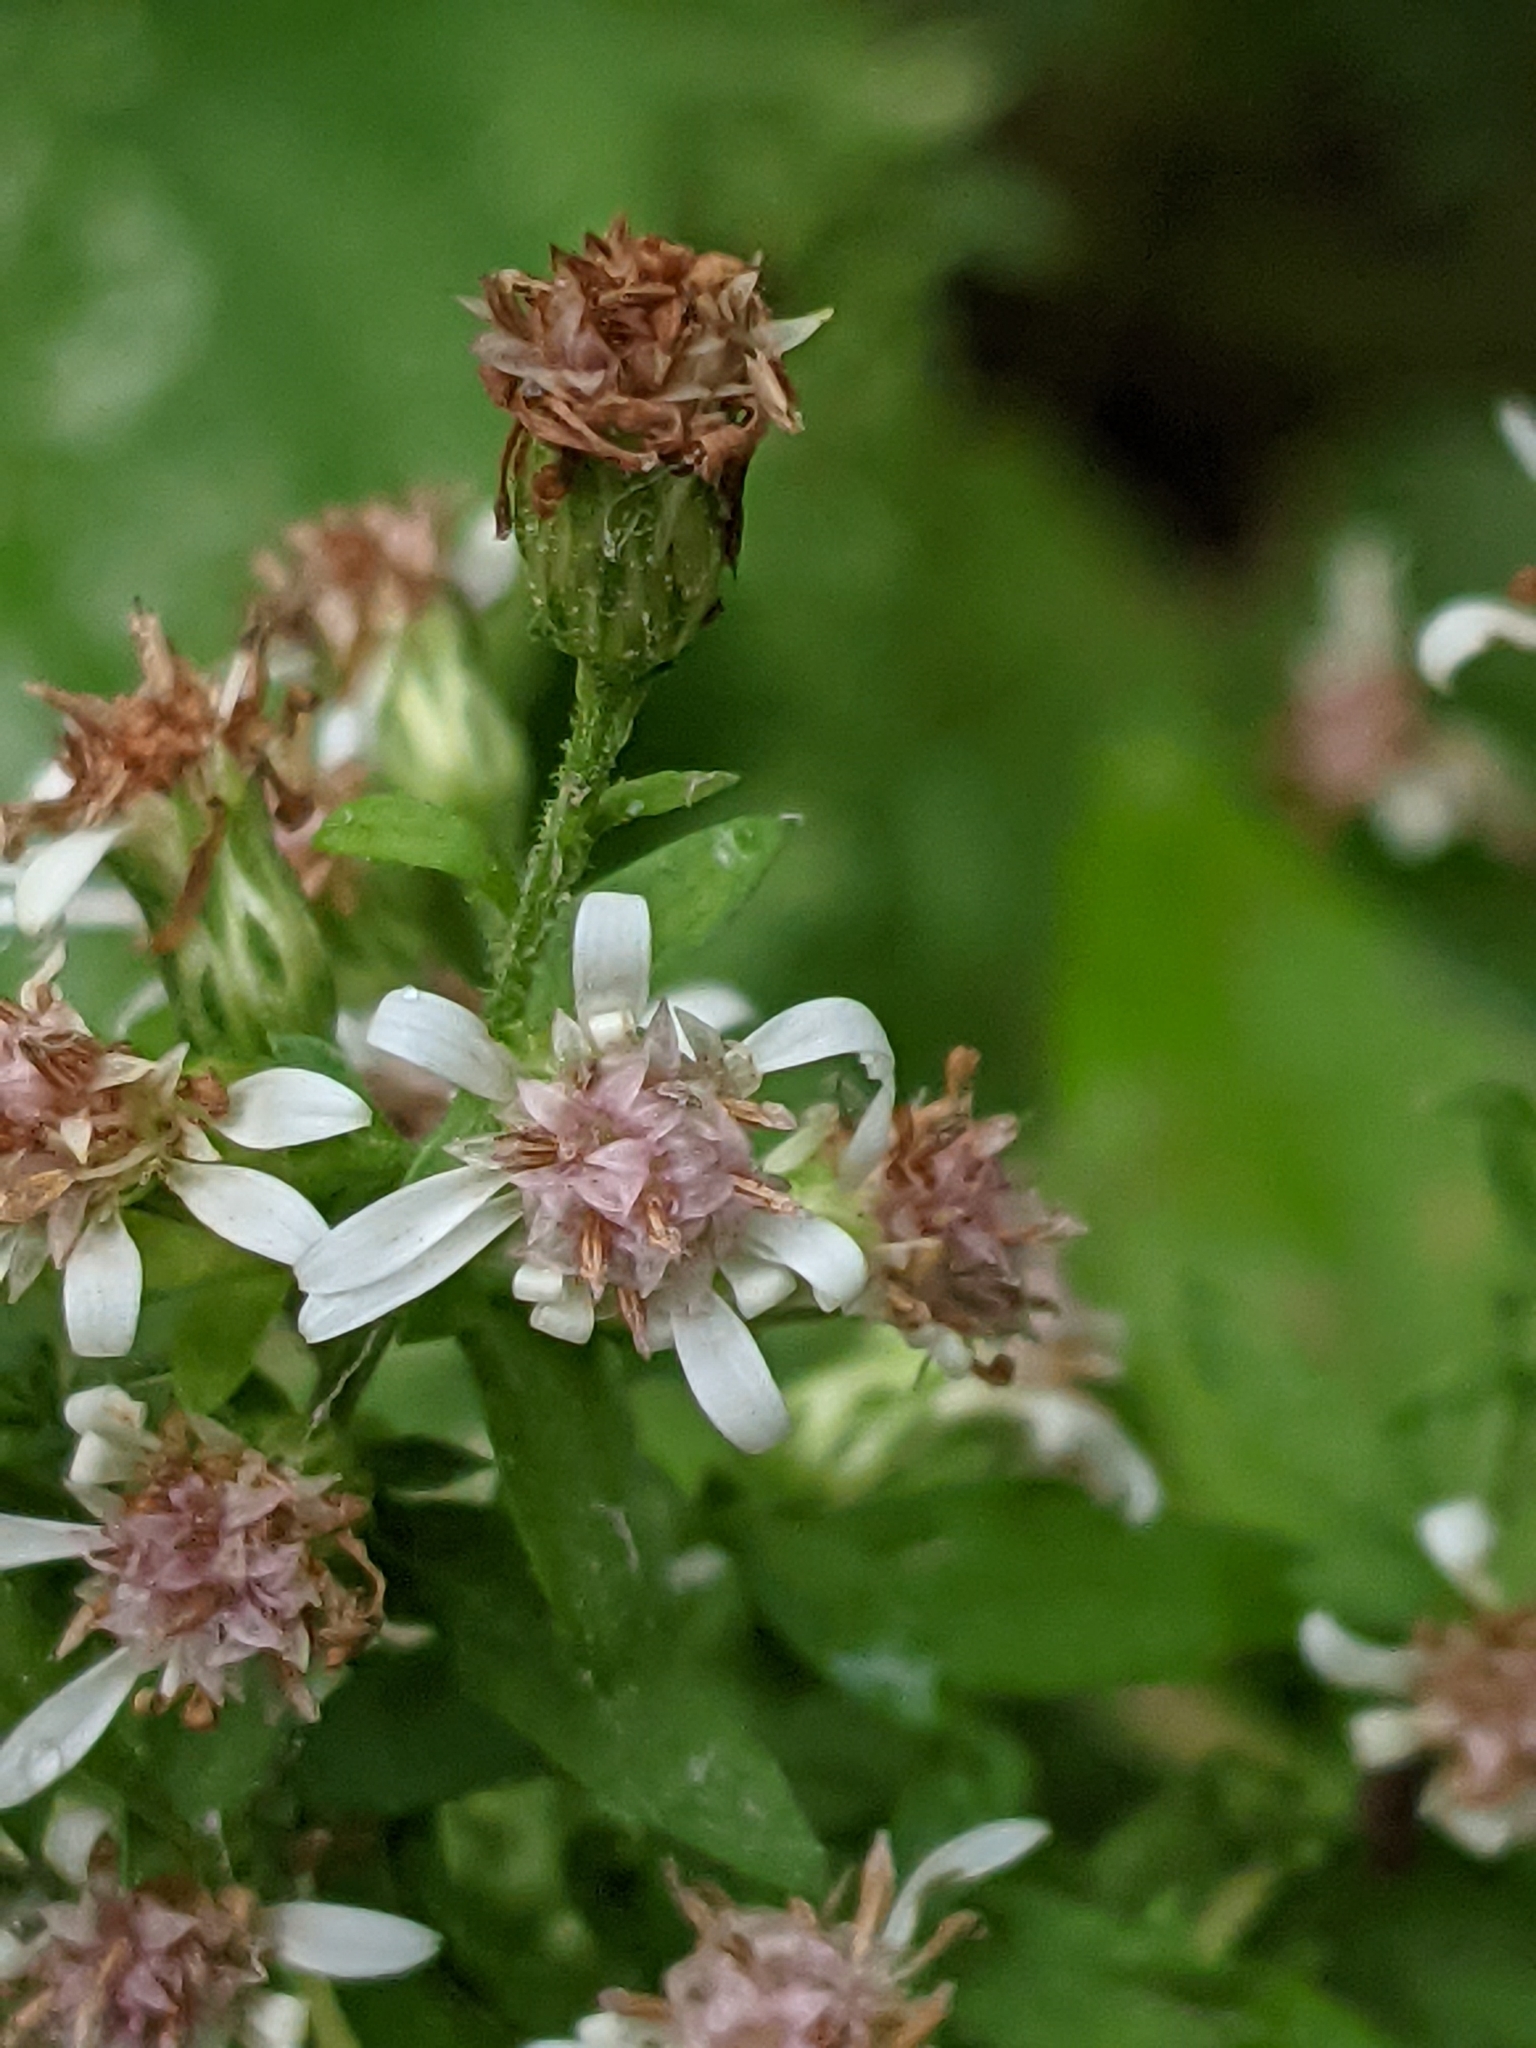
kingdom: Plantae
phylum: Tracheophyta
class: Magnoliopsida
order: Asterales
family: Asteraceae
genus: Symphyotrichum
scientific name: Symphyotrichum lateriflorum
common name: Calico aster
